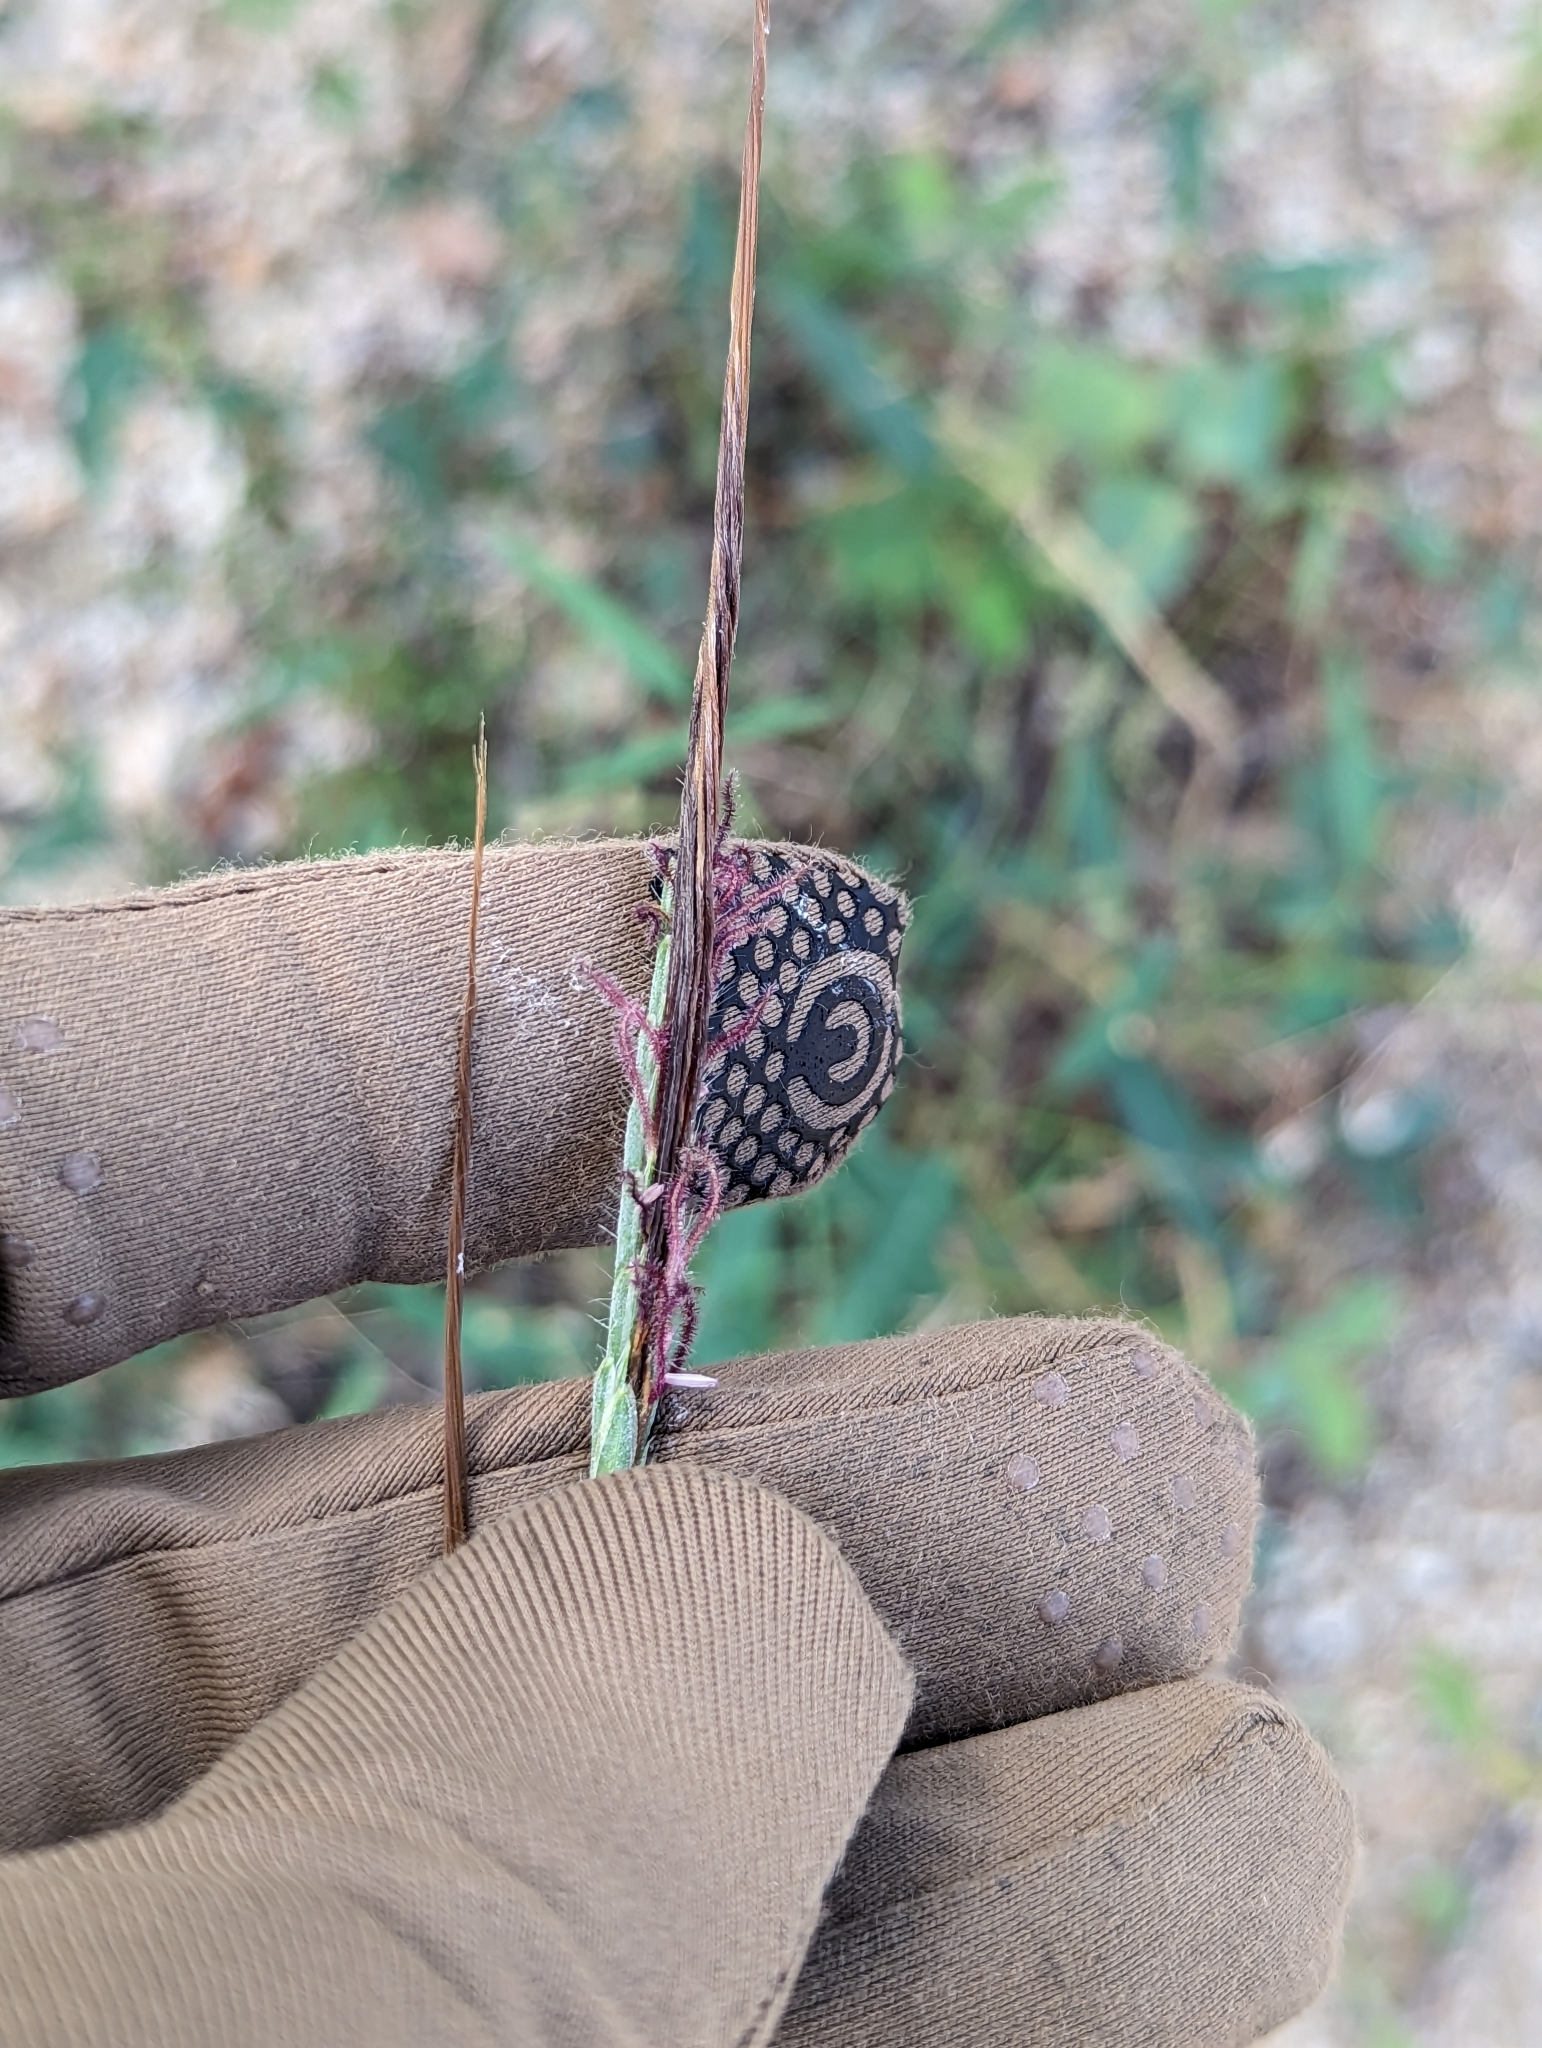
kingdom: Plantae
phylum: Tracheophyta
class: Liliopsida
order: Poales
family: Poaceae
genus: Heteropogon
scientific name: Heteropogon contortus
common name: Tanglehead
